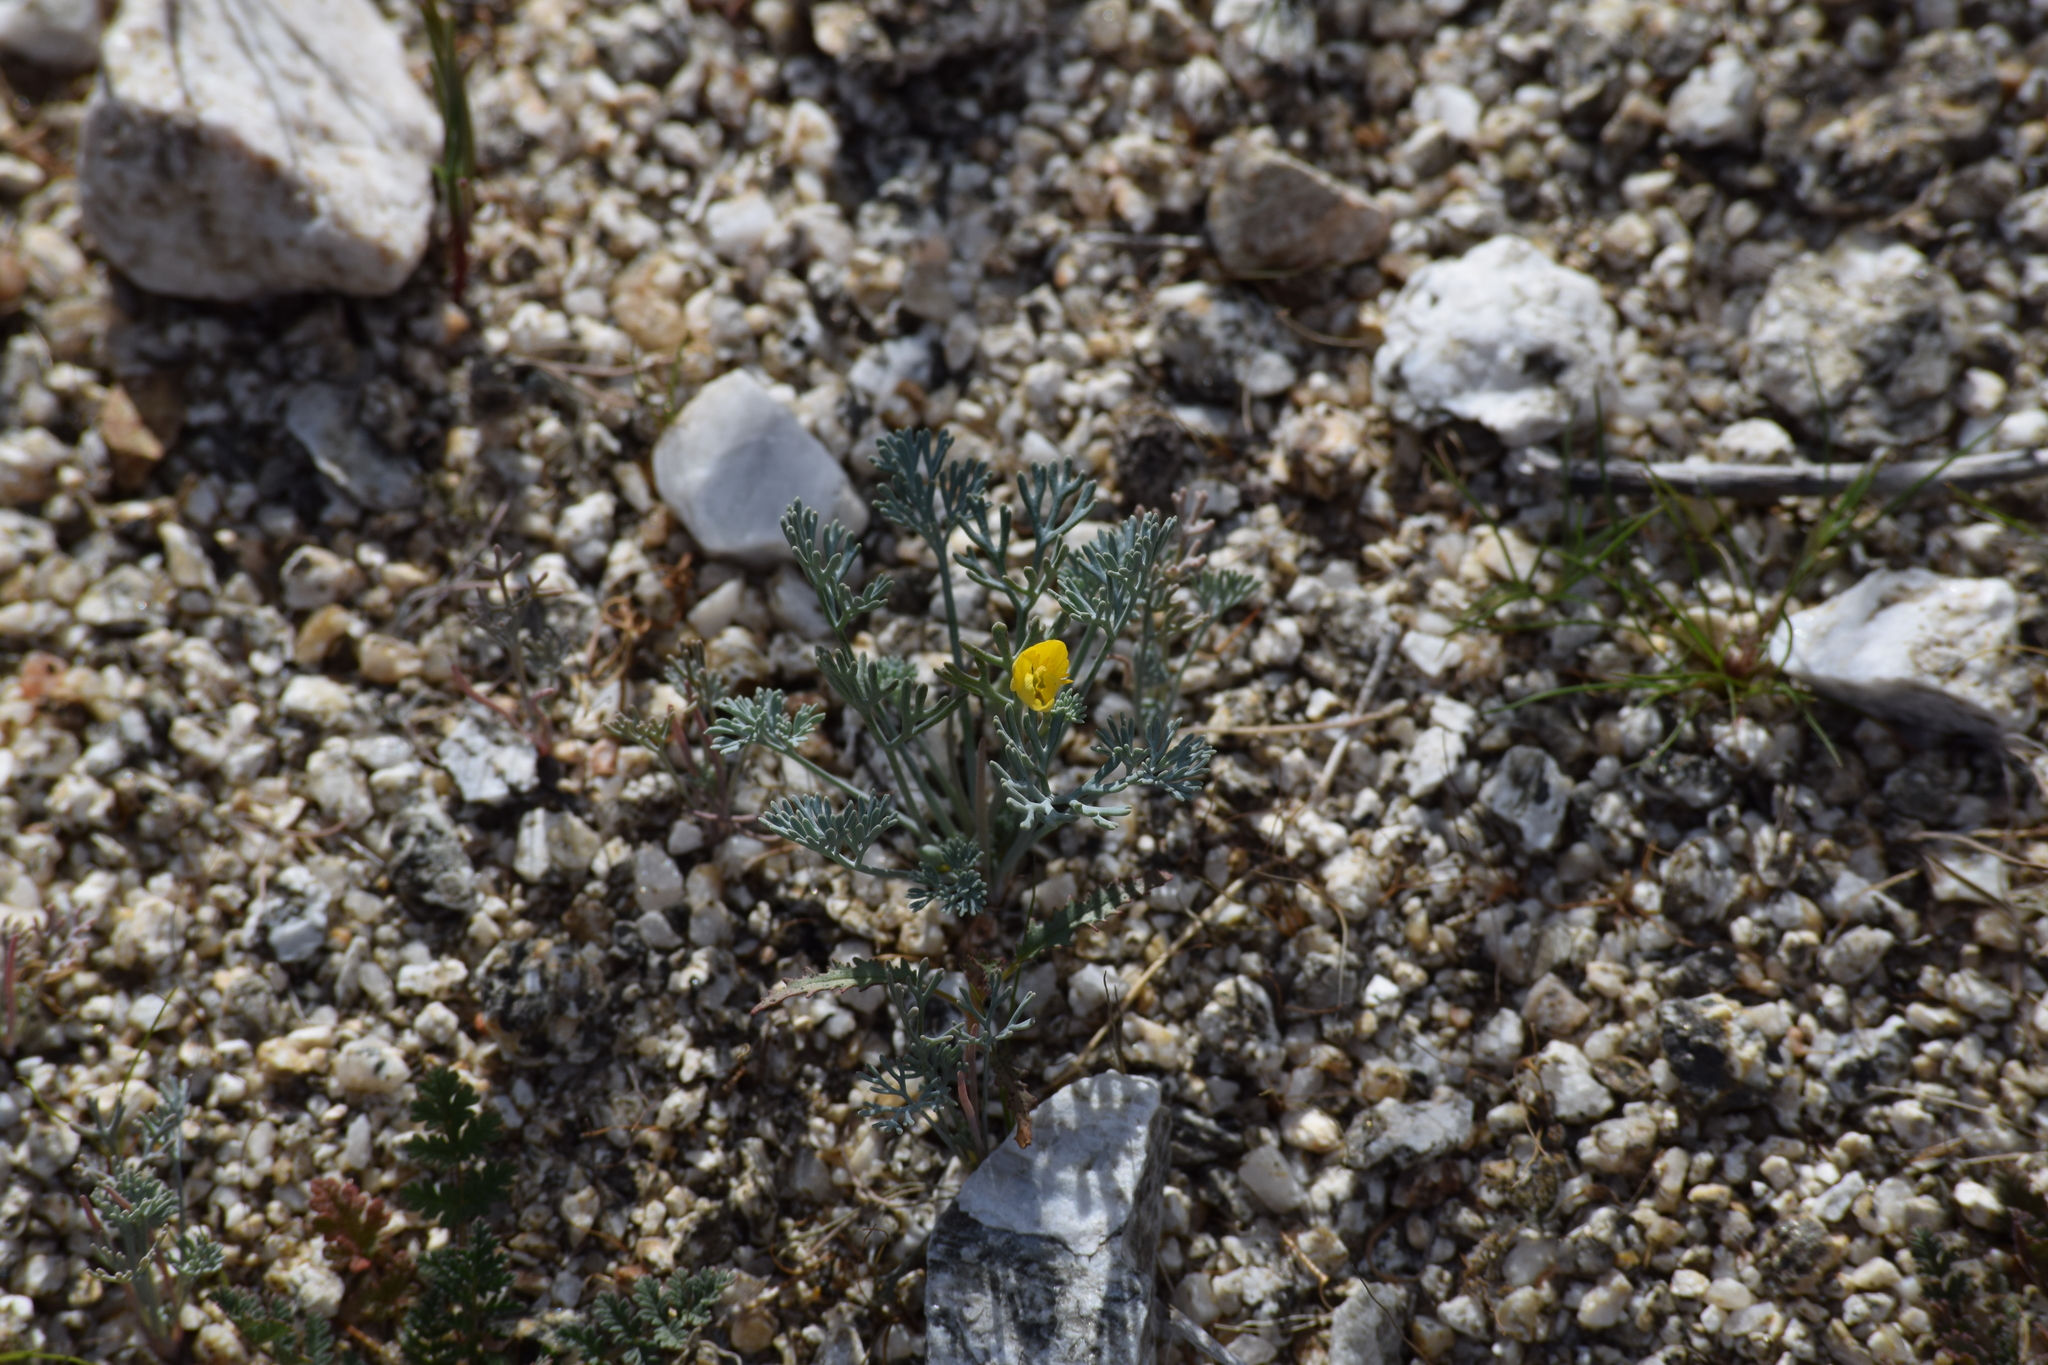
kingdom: Plantae
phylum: Tracheophyta
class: Magnoliopsida
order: Ranunculales
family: Papaveraceae
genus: Eschscholzia
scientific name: Eschscholzia minutiflora
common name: Small-flower california-poppy
